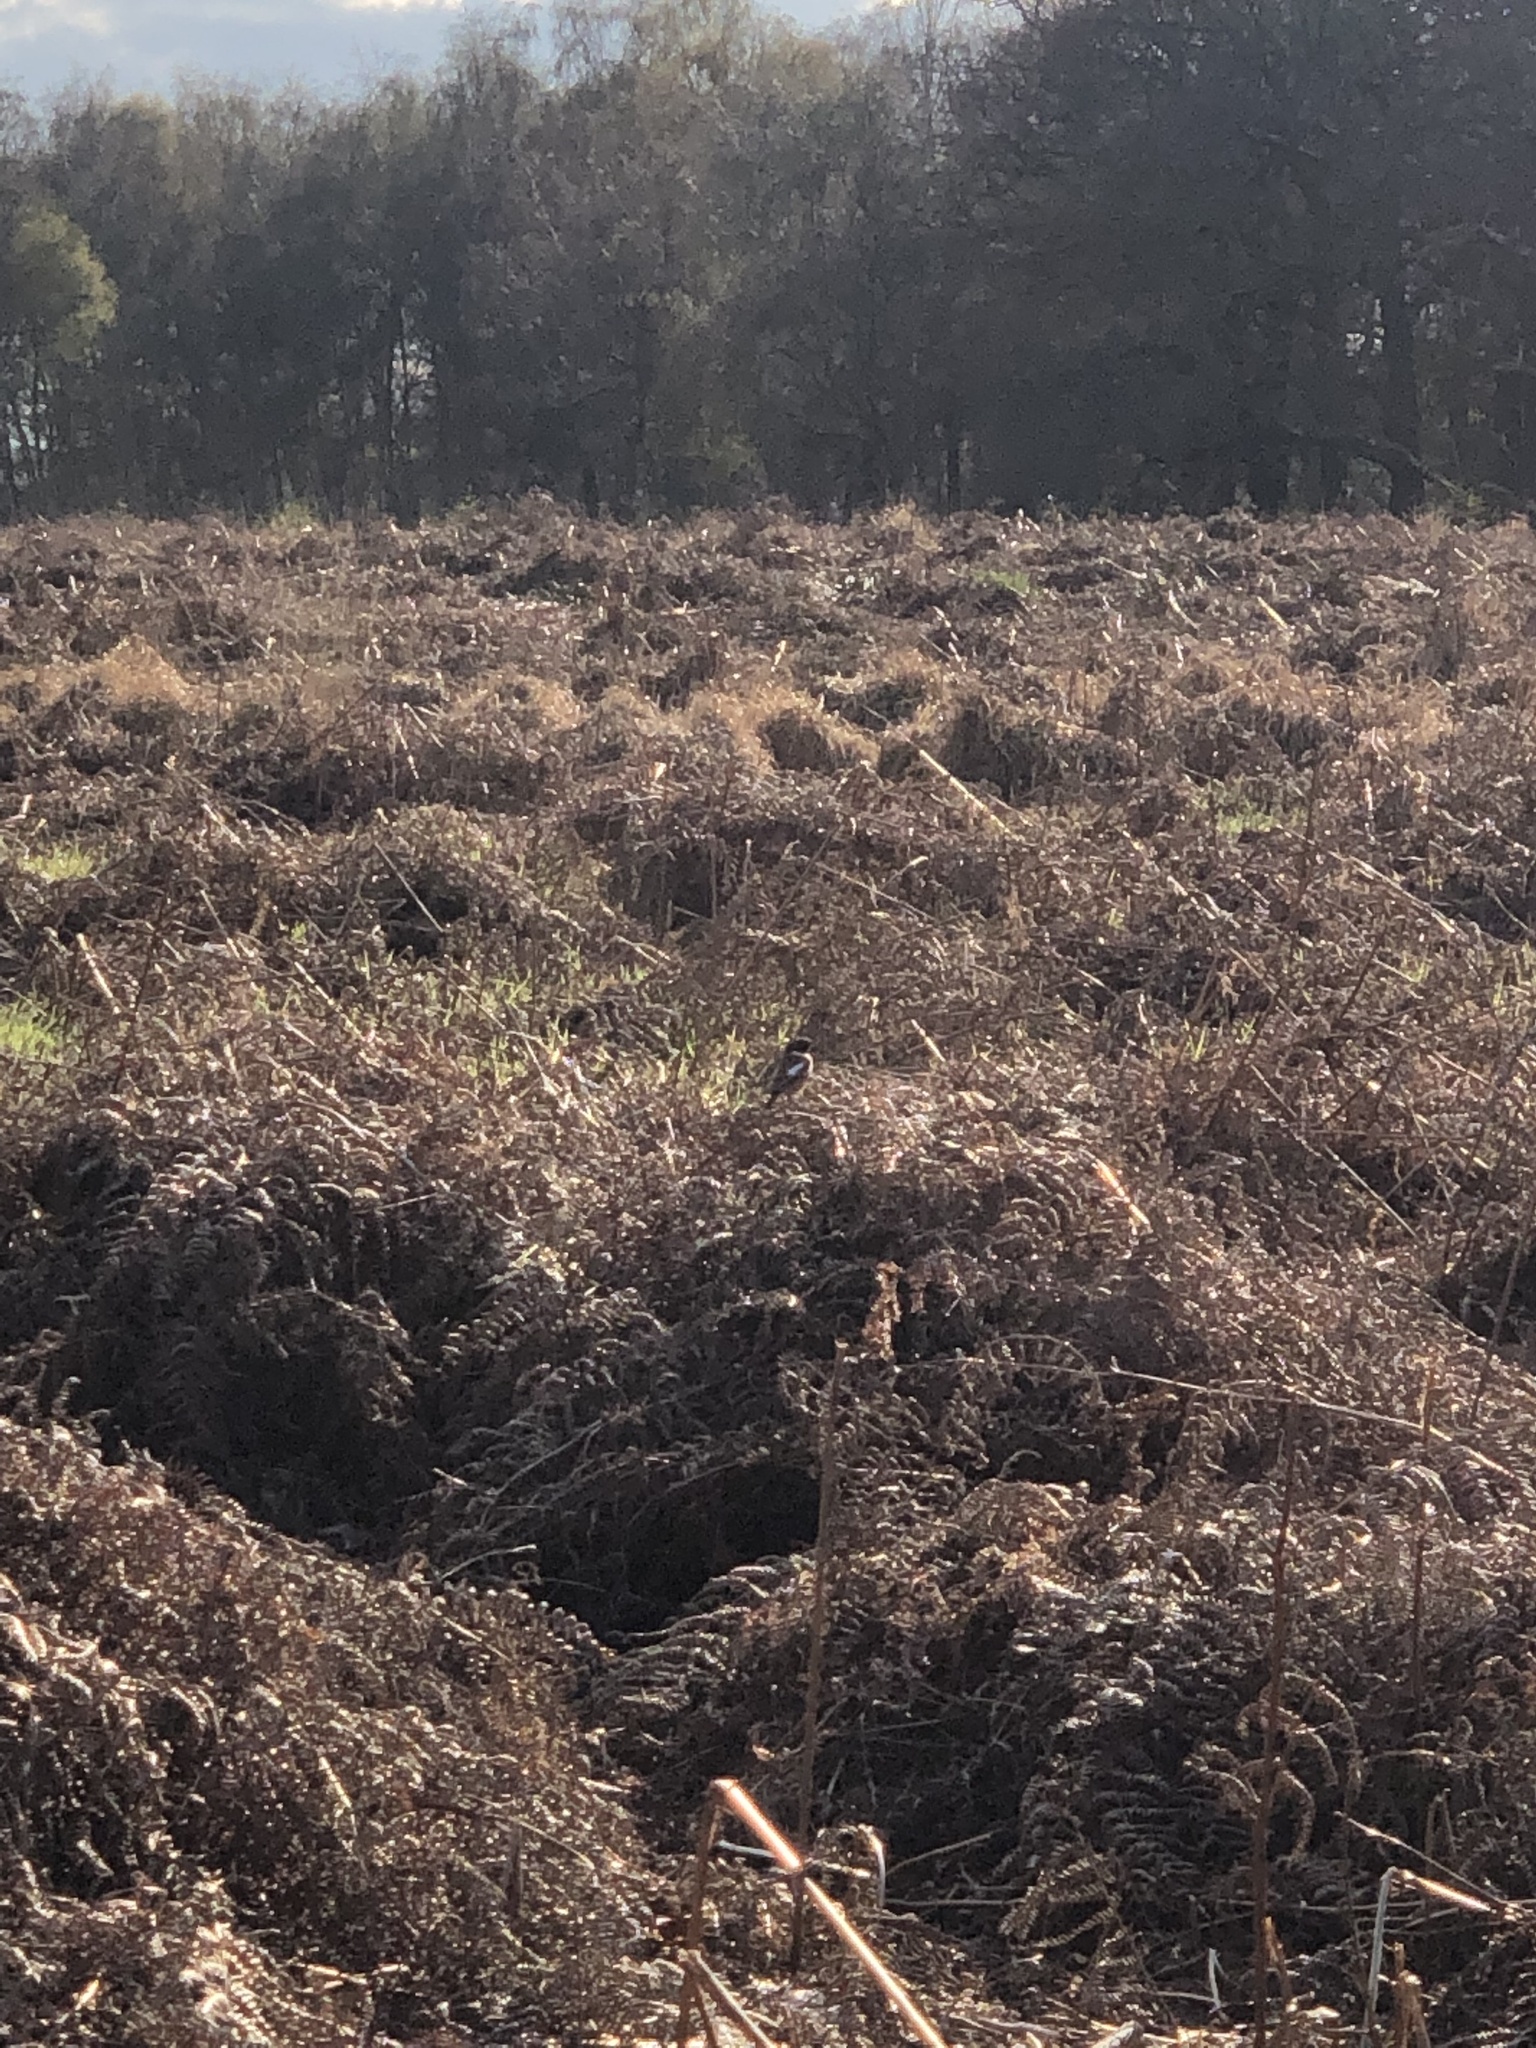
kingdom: Animalia
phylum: Chordata
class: Aves
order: Passeriformes
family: Muscicapidae
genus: Saxicola
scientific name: Saxicola rubicola
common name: European stonechat
